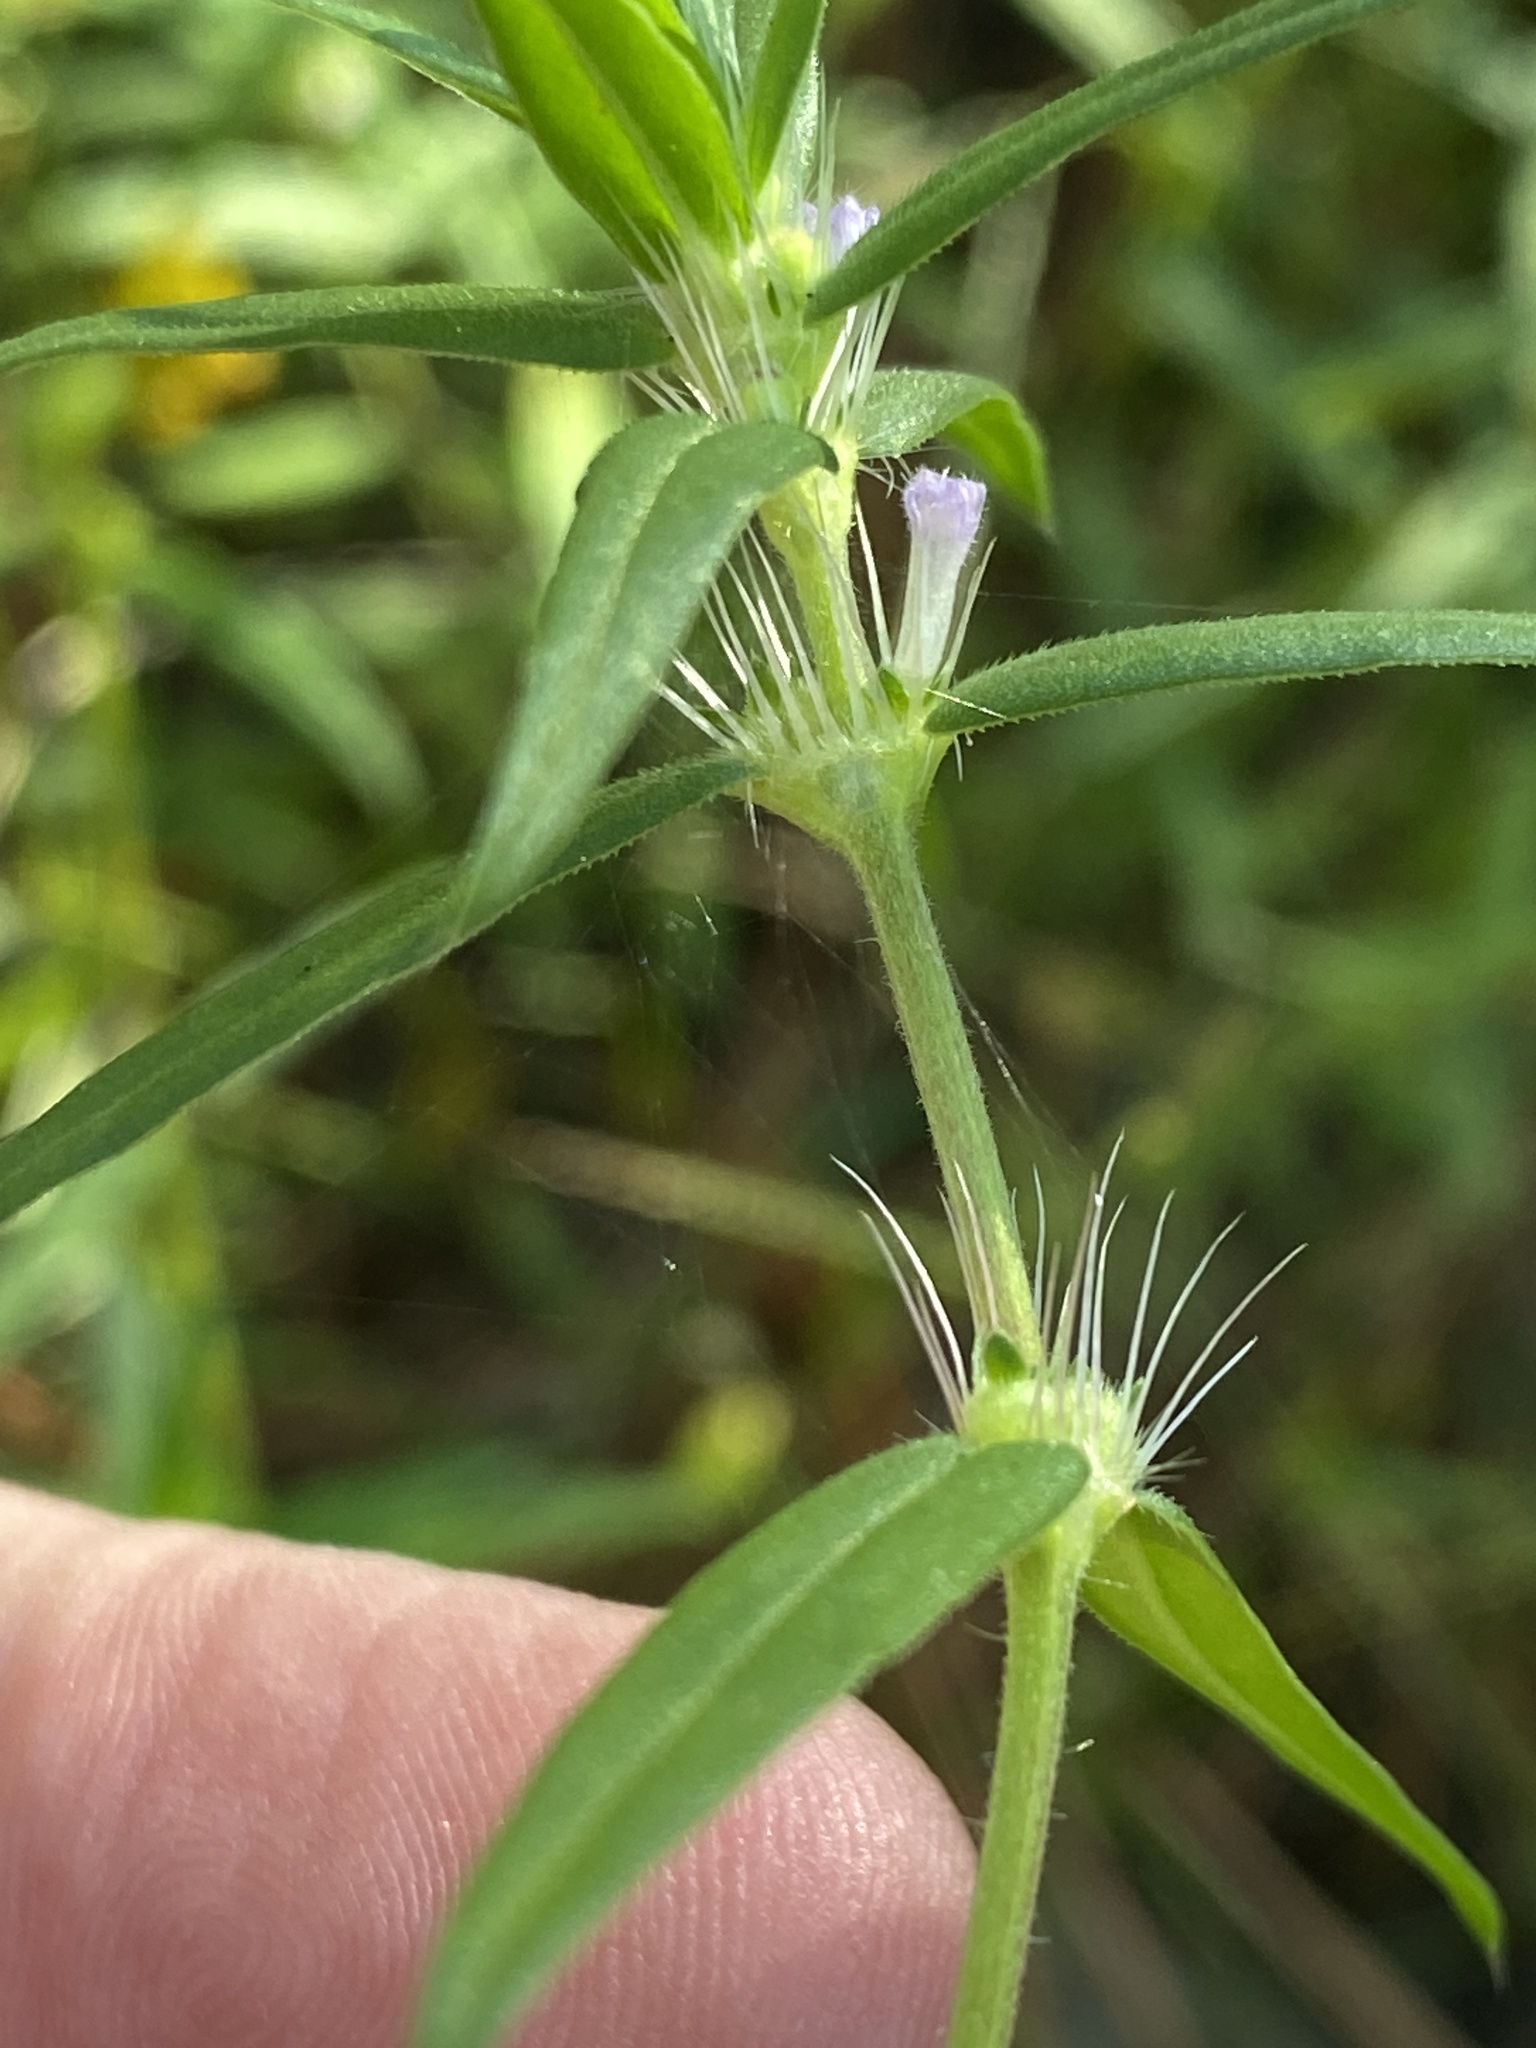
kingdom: Plantae
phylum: Tracheophyta
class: Magnoliopsida
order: Gentianales
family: Rubiaceae
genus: Hexasepalum
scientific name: Hexasepalum teres
